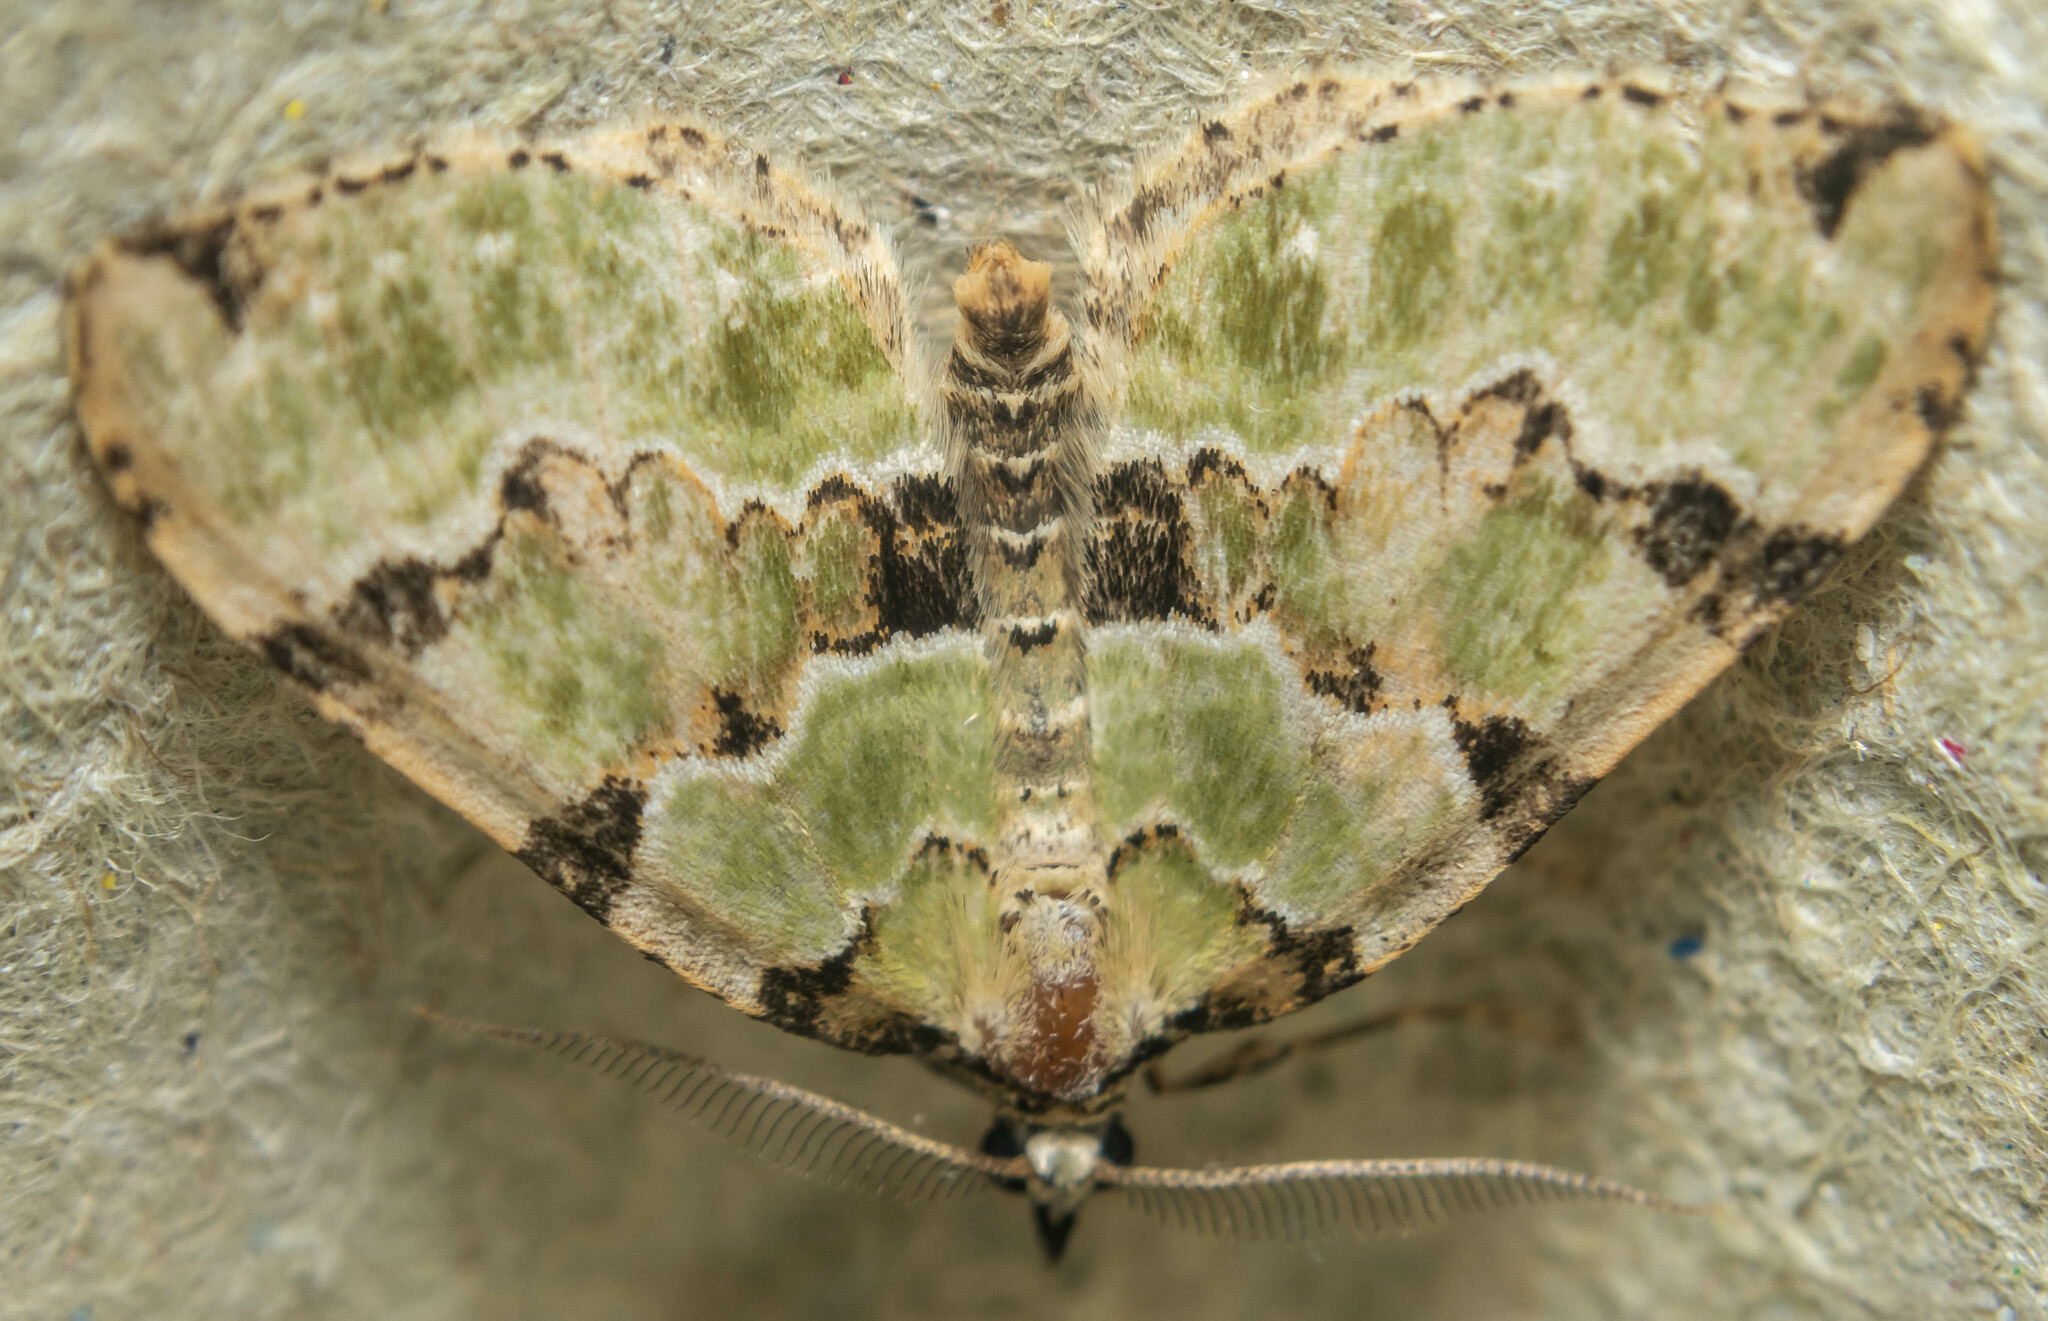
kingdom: Animalia
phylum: Arthropoda
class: Insecta
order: Lepidoptera
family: Geometridae
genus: Colostygia
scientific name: Colostygia pectinataria
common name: Green carpet
